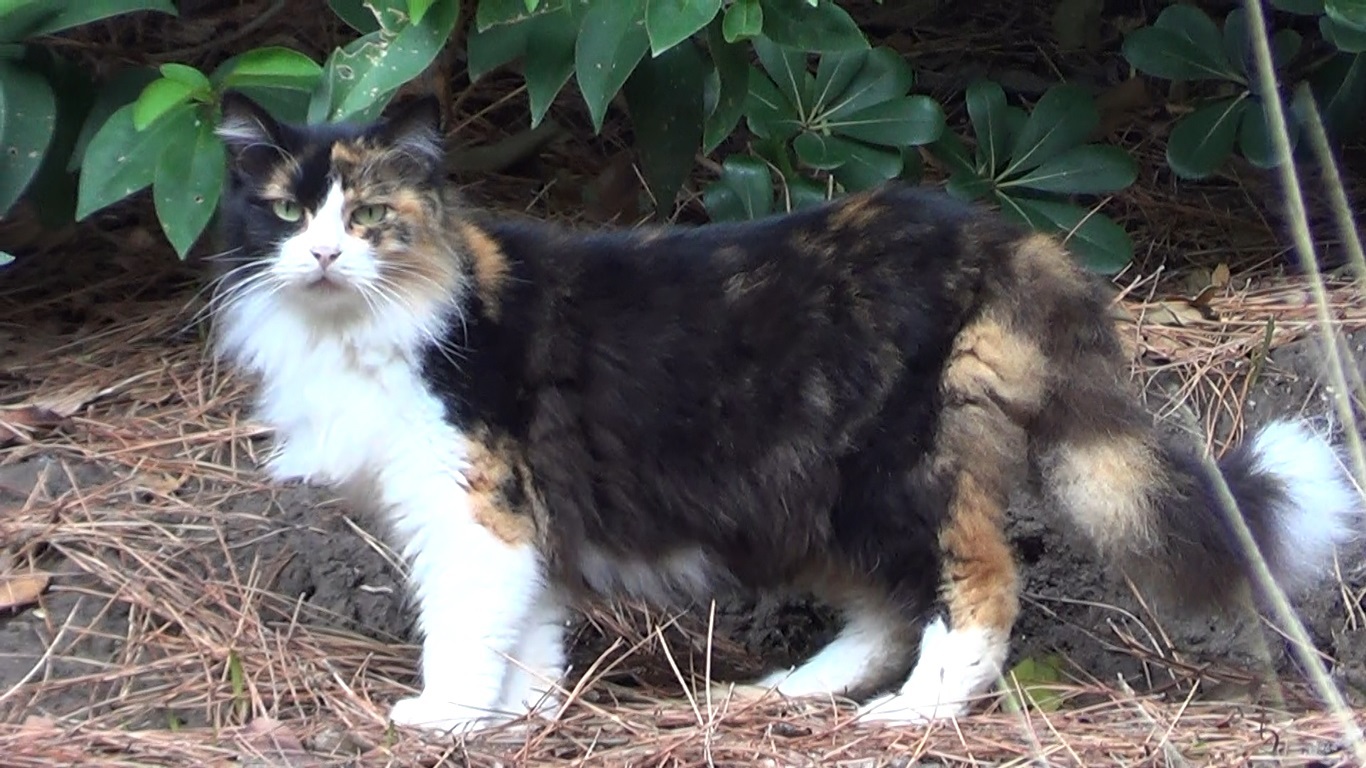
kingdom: Animalia
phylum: Chordata
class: Mammalia
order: Carnivora
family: Felidae
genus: Felis
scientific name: Felis catus
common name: Domestic cat
